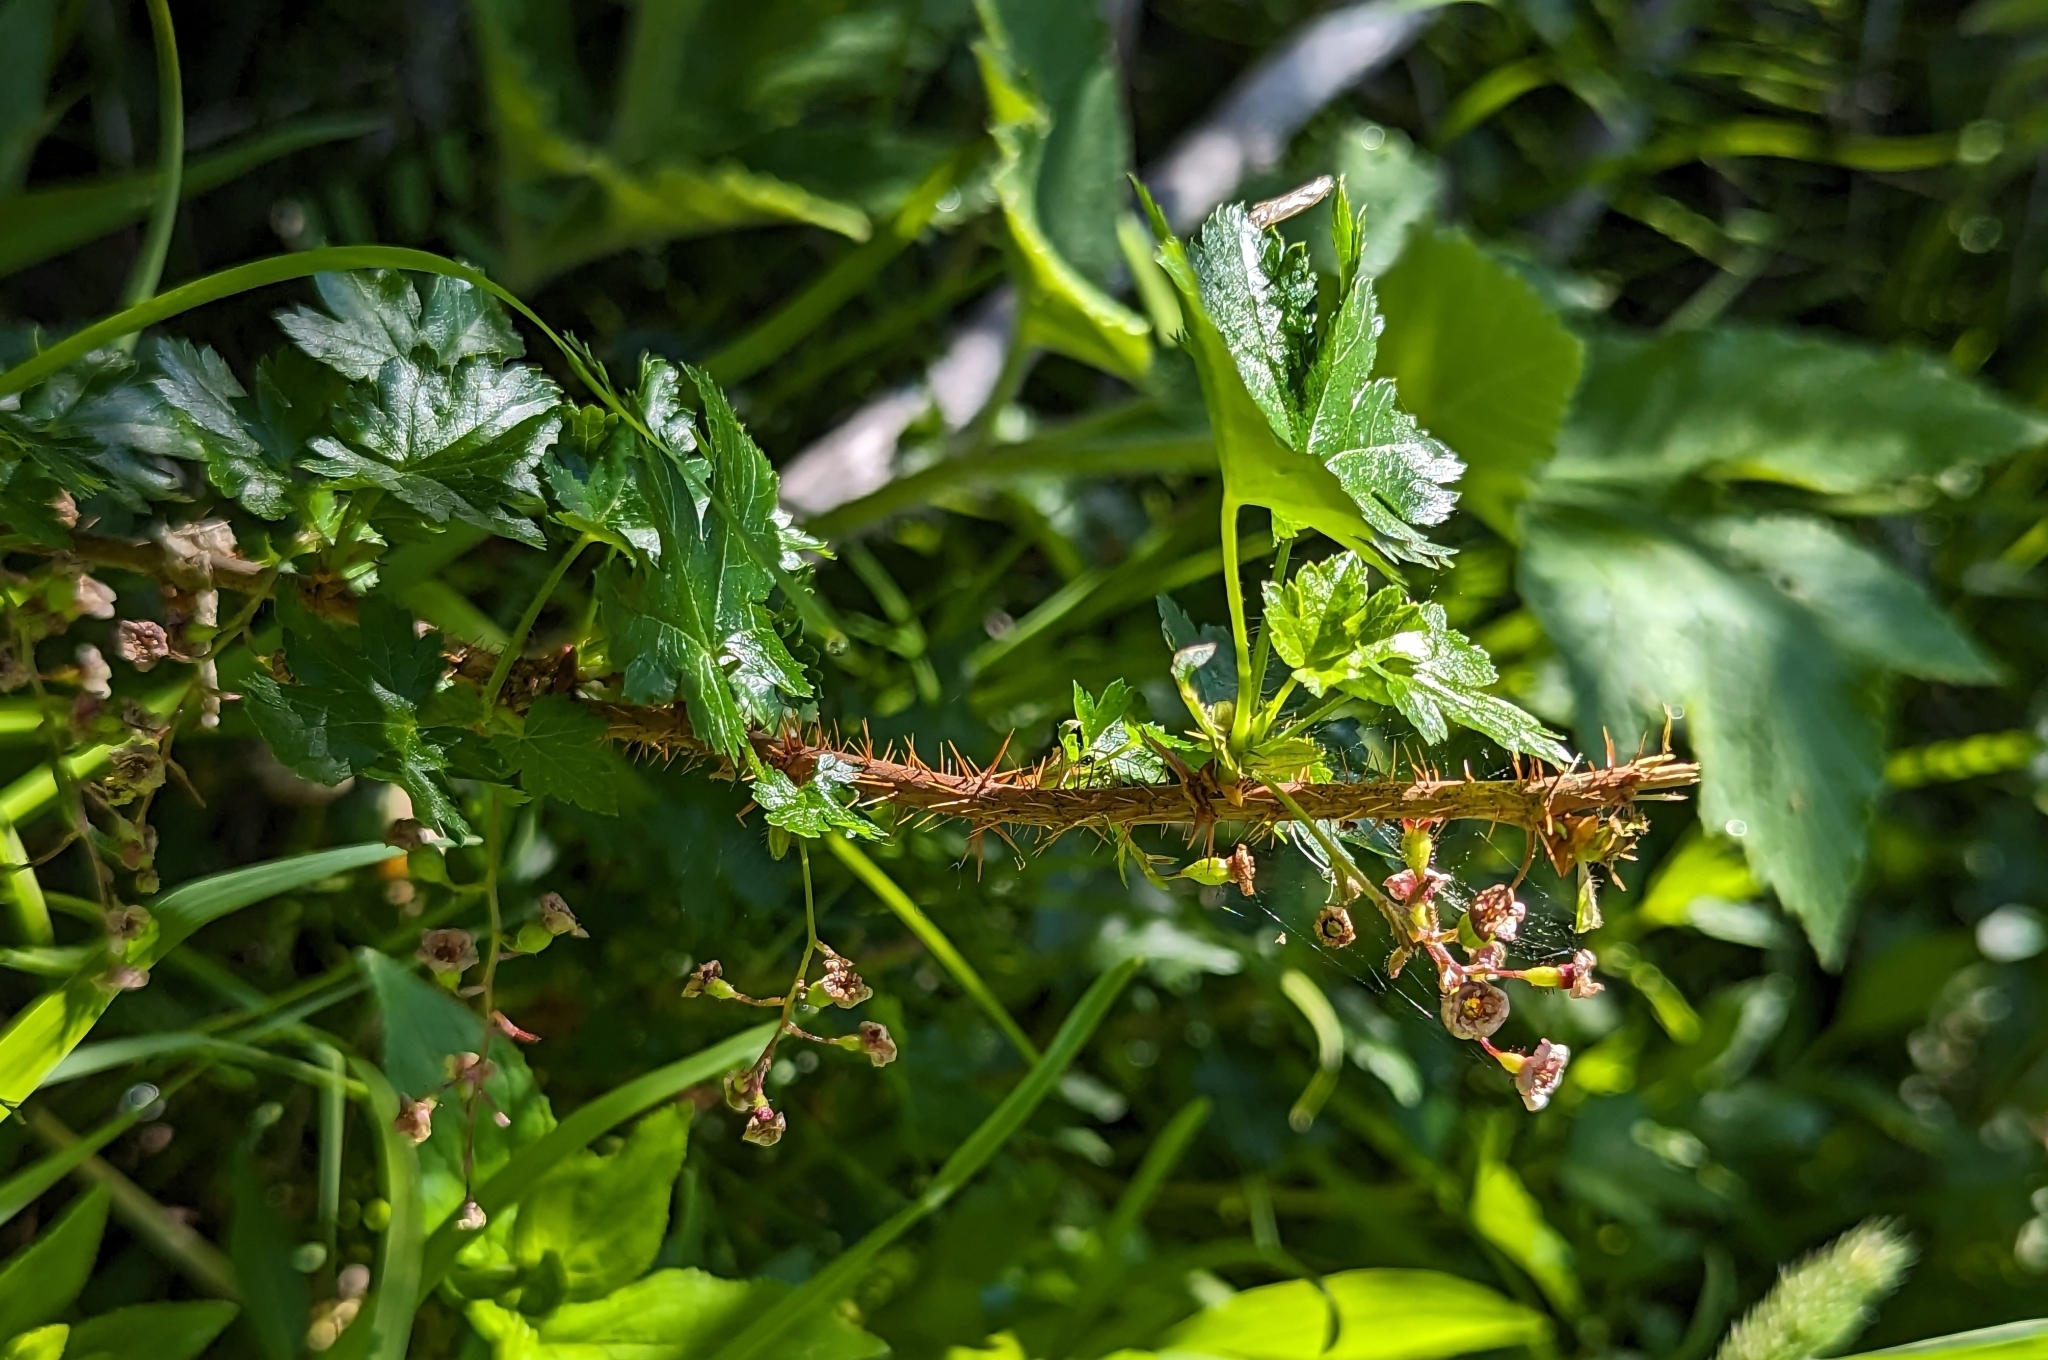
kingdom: Plantae
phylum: Tracheophyta
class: Magnoliopsida
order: Saxifragales
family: Grossulariaceae
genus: Ribes
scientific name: Ribes lacustre
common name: Black gooseberry
